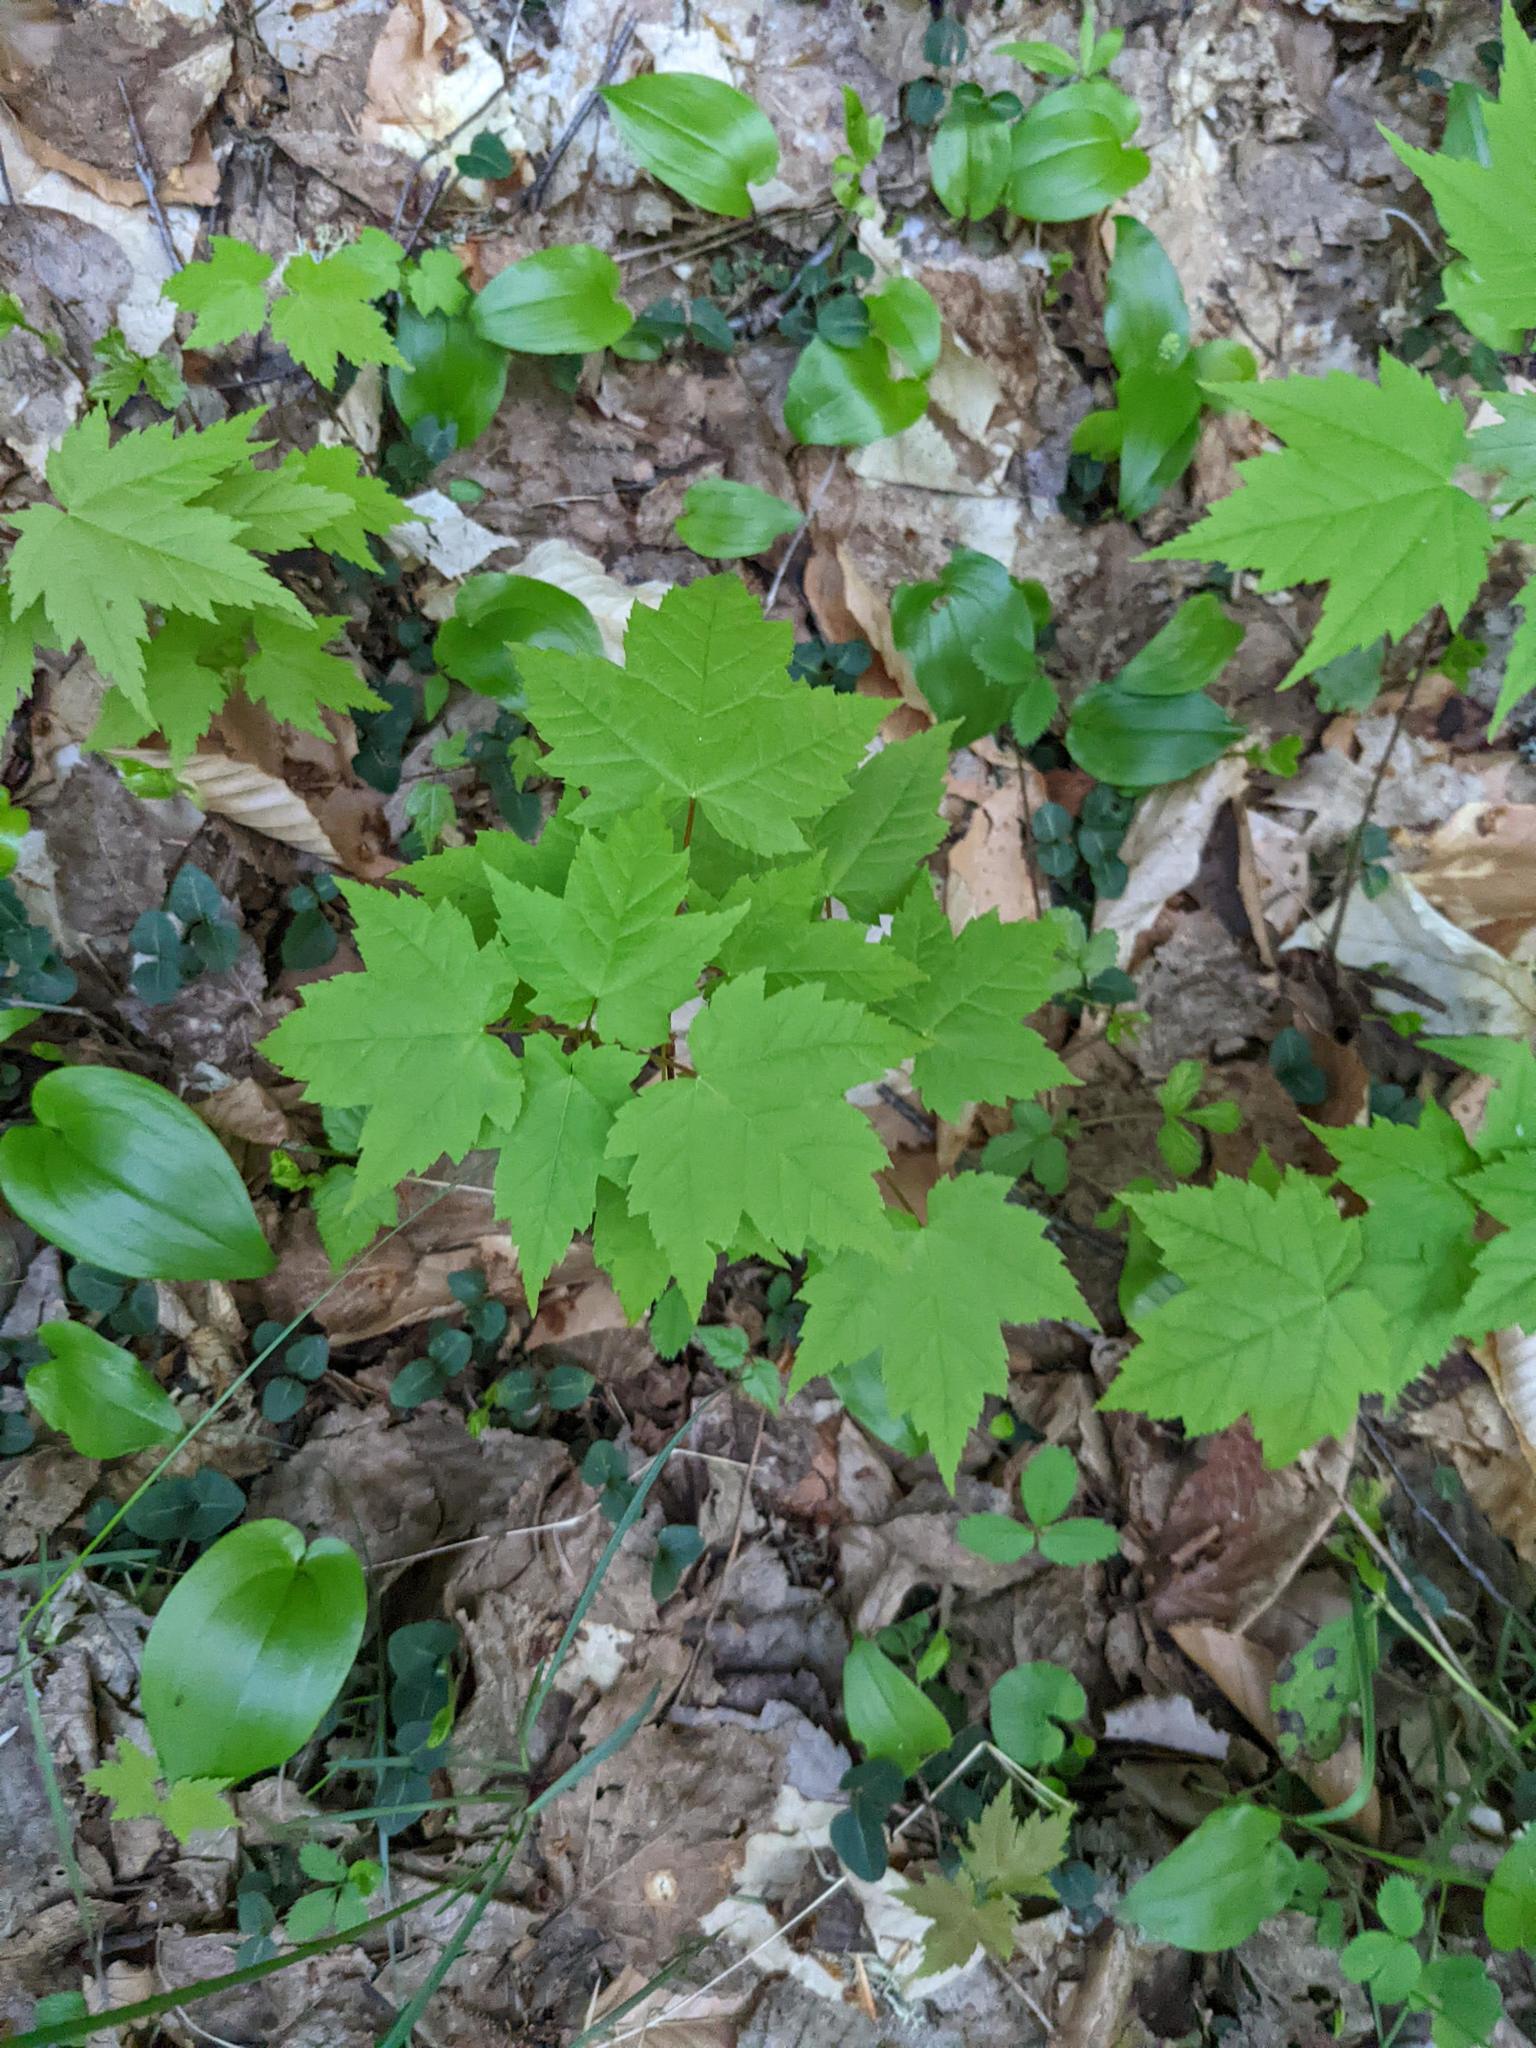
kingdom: Plantae
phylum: Tracheophyta
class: Magnoliopsida
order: Sapindales
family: Sapindaceae
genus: Acer
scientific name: Acer rubrum
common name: Red maple
